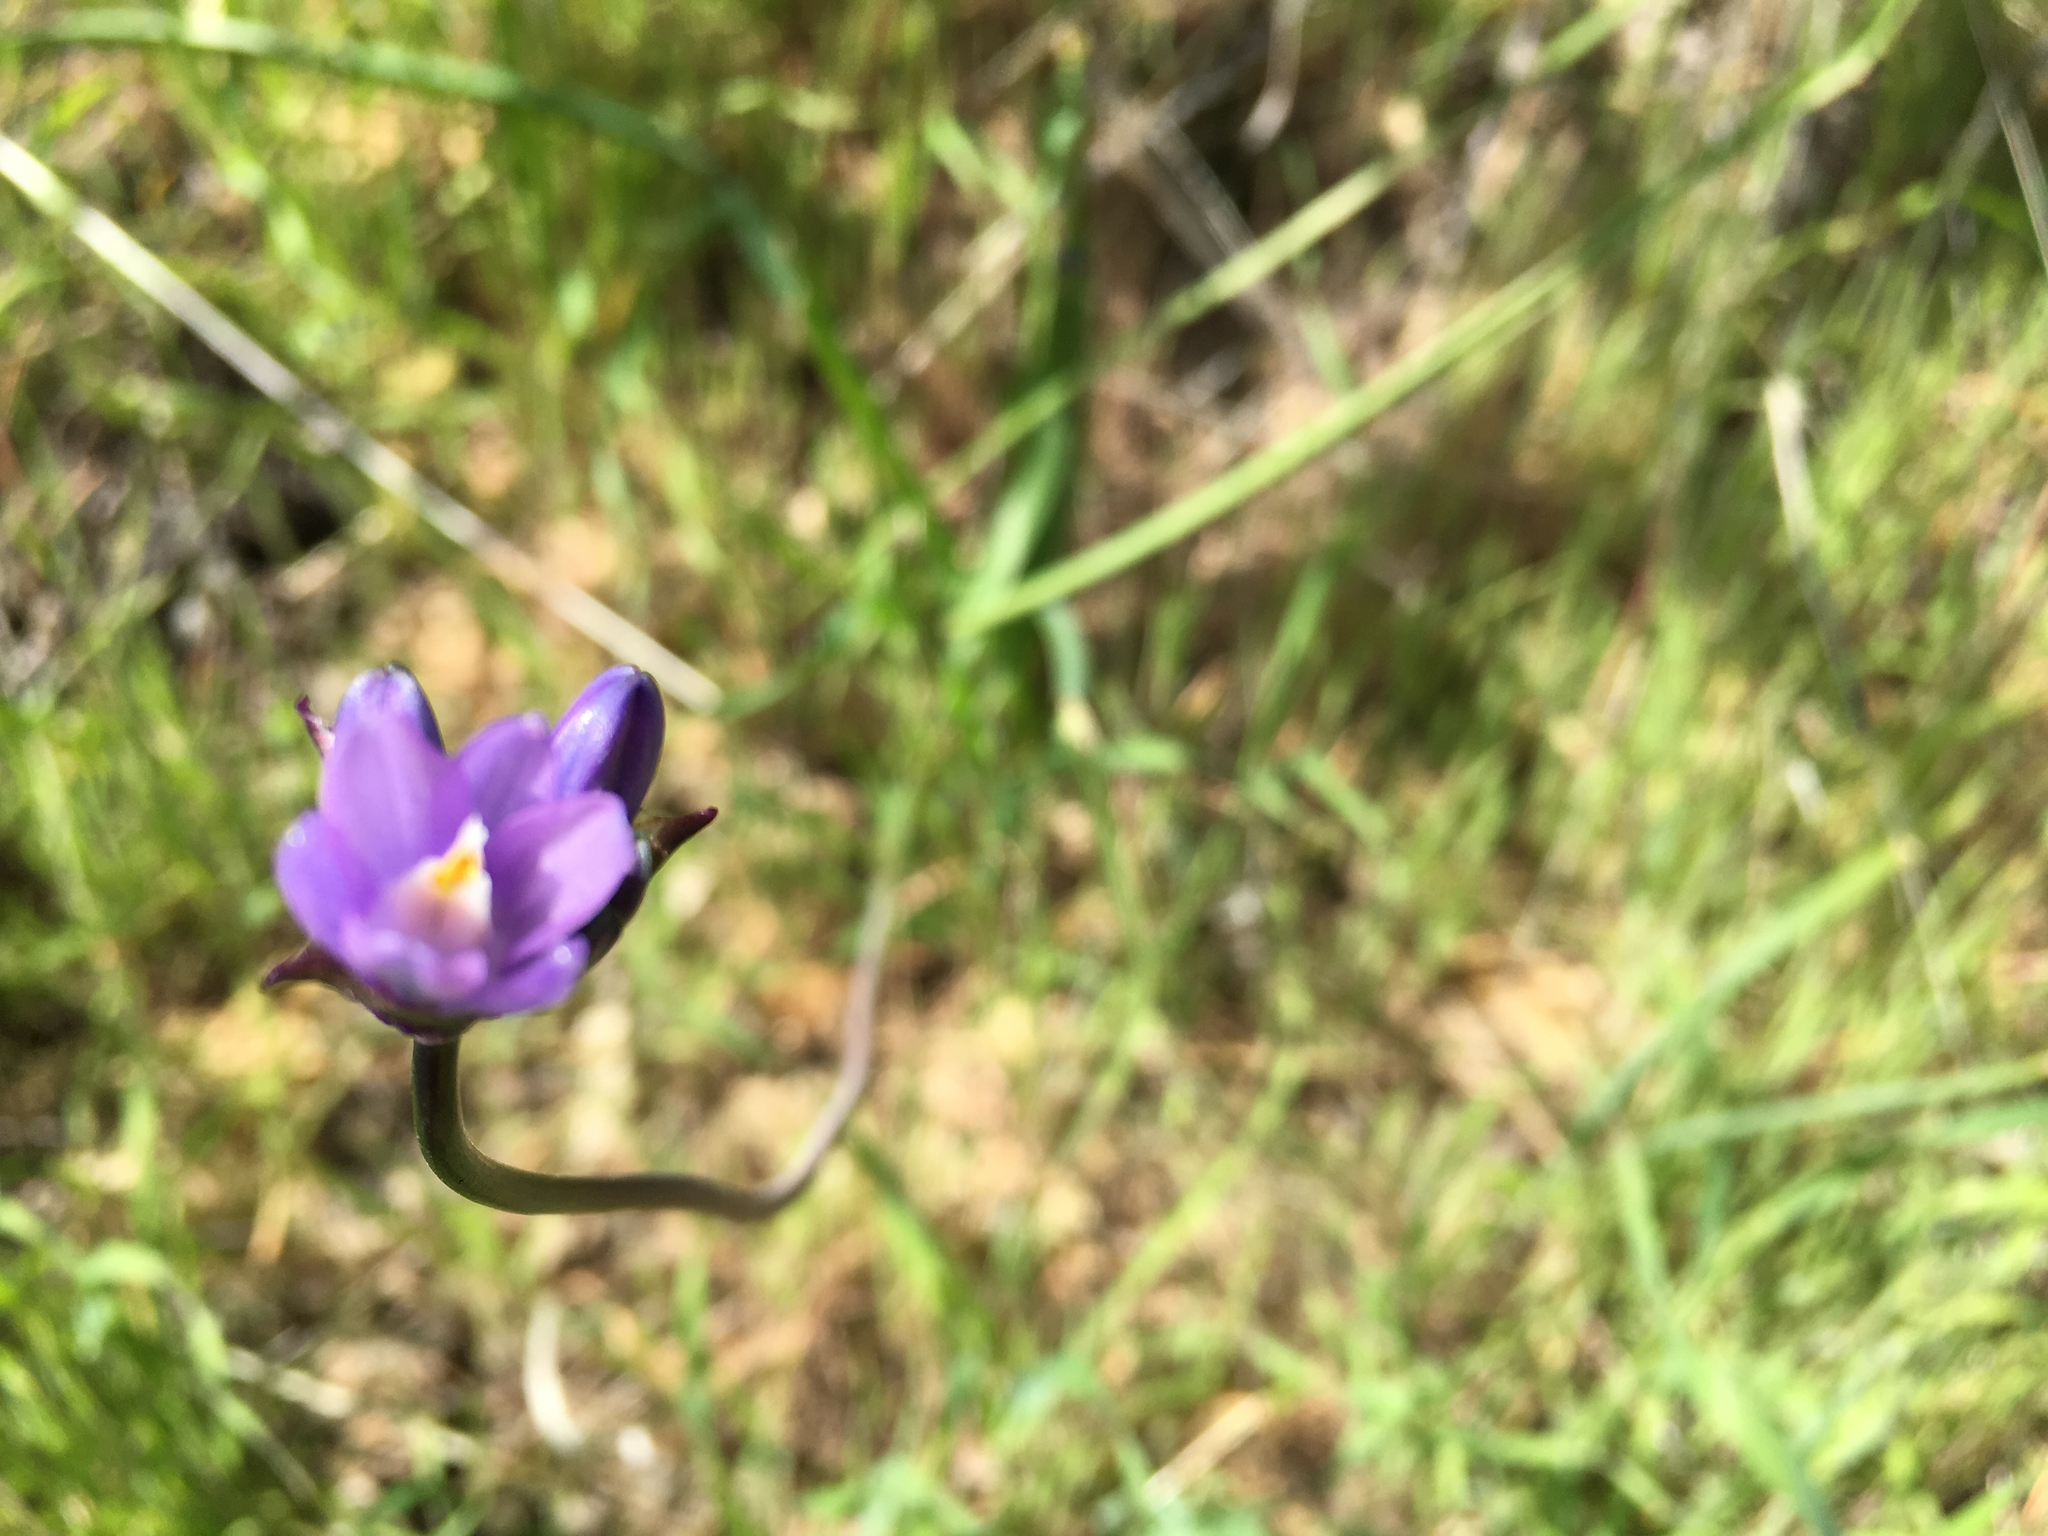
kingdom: Plantae
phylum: Tracheophyta
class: Liliopsida
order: Asparagales
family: Asparagaceae
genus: Dipterostemon
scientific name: Dipterostemon capitatus
